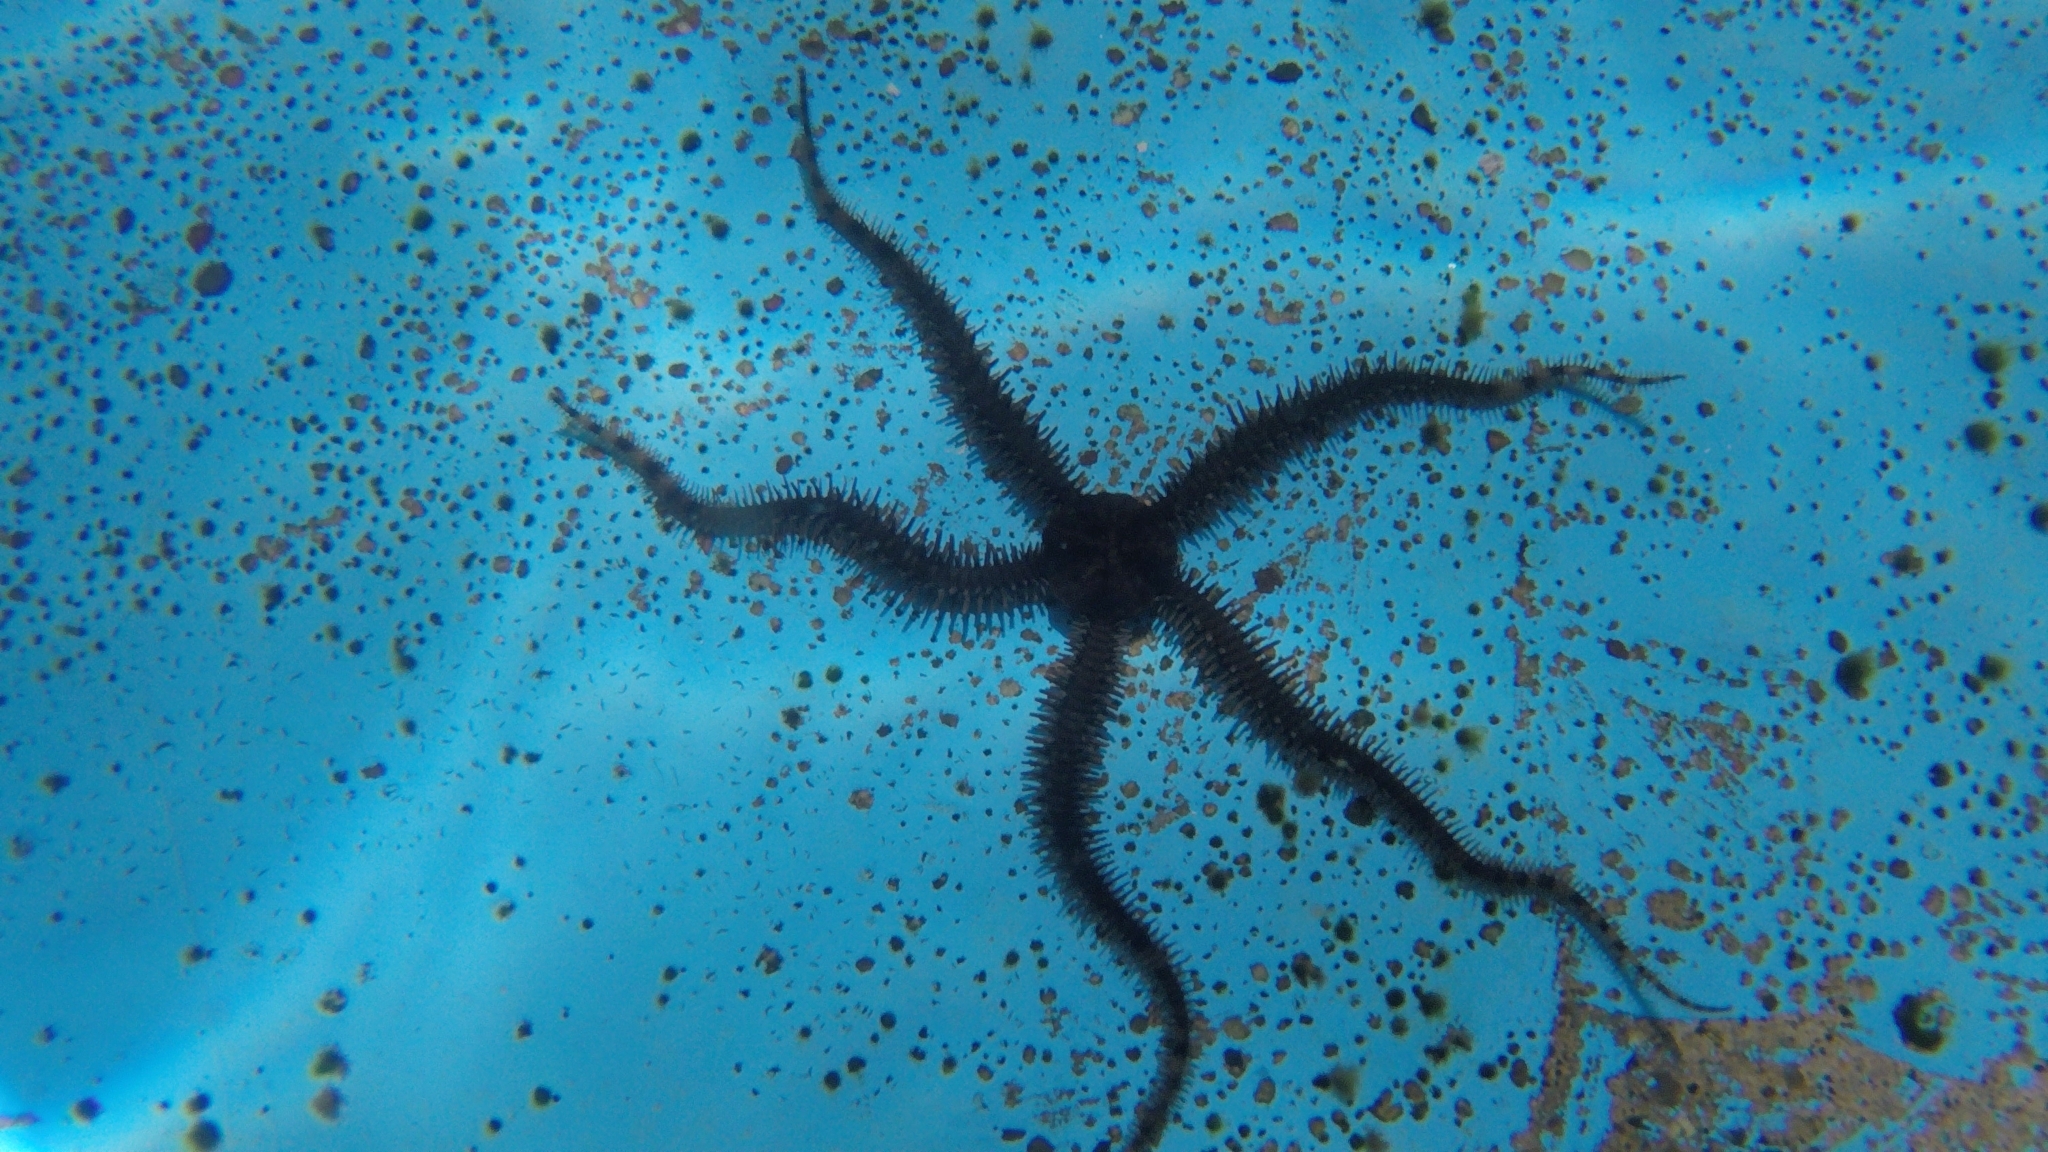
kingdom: Animalia
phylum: Echinodermata
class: Ophiuroidea
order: Ophiacanthida
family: Ophiocomidae
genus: Ophiocoma
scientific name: Ophiocoma aethiops
